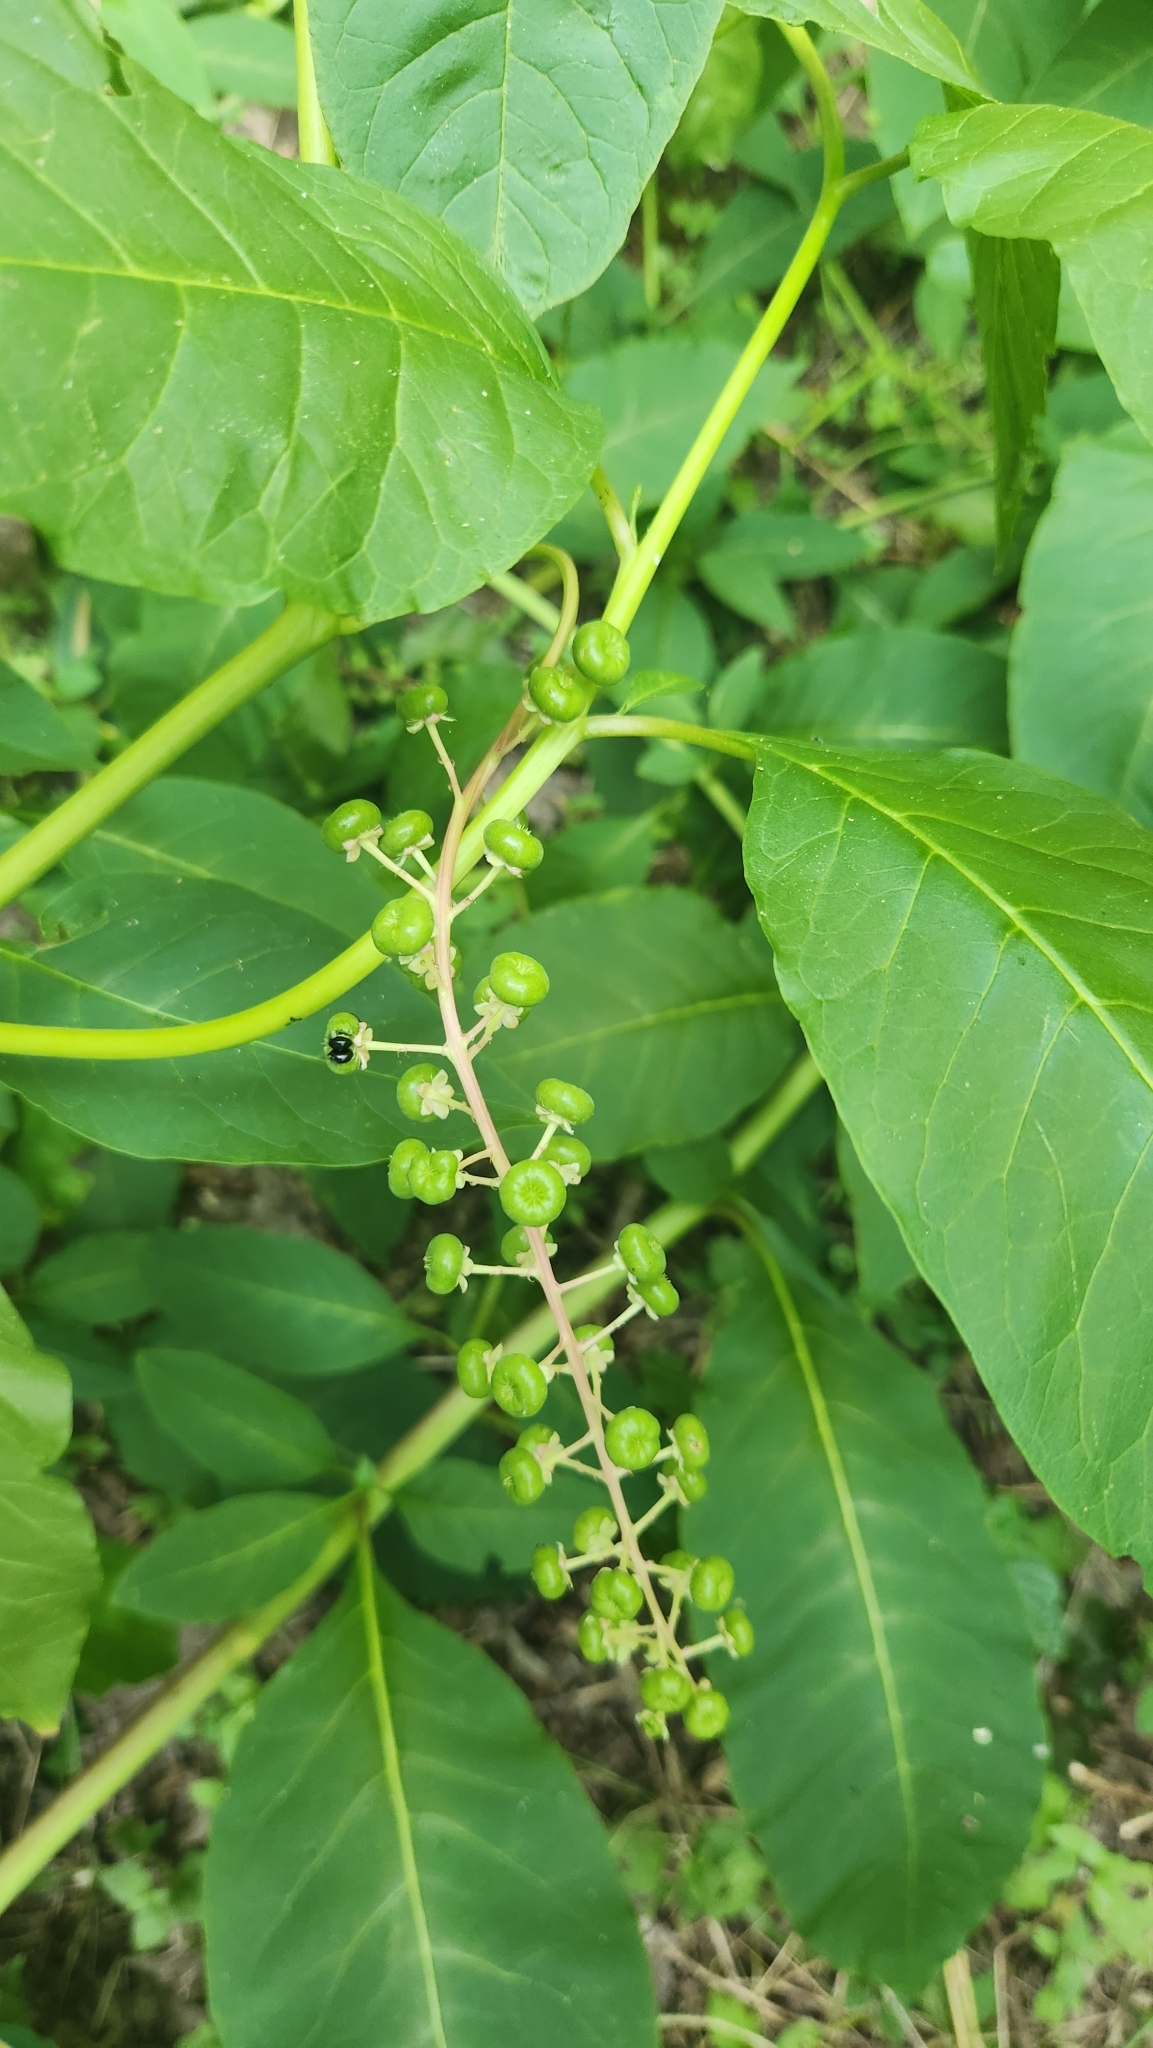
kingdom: Plantae
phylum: Tracheophyta
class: Magnoliopsida
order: Caryophyllales
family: Phytolaccaceae
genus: Phytolacca
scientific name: Phytolacca americana
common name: American pokeweed
